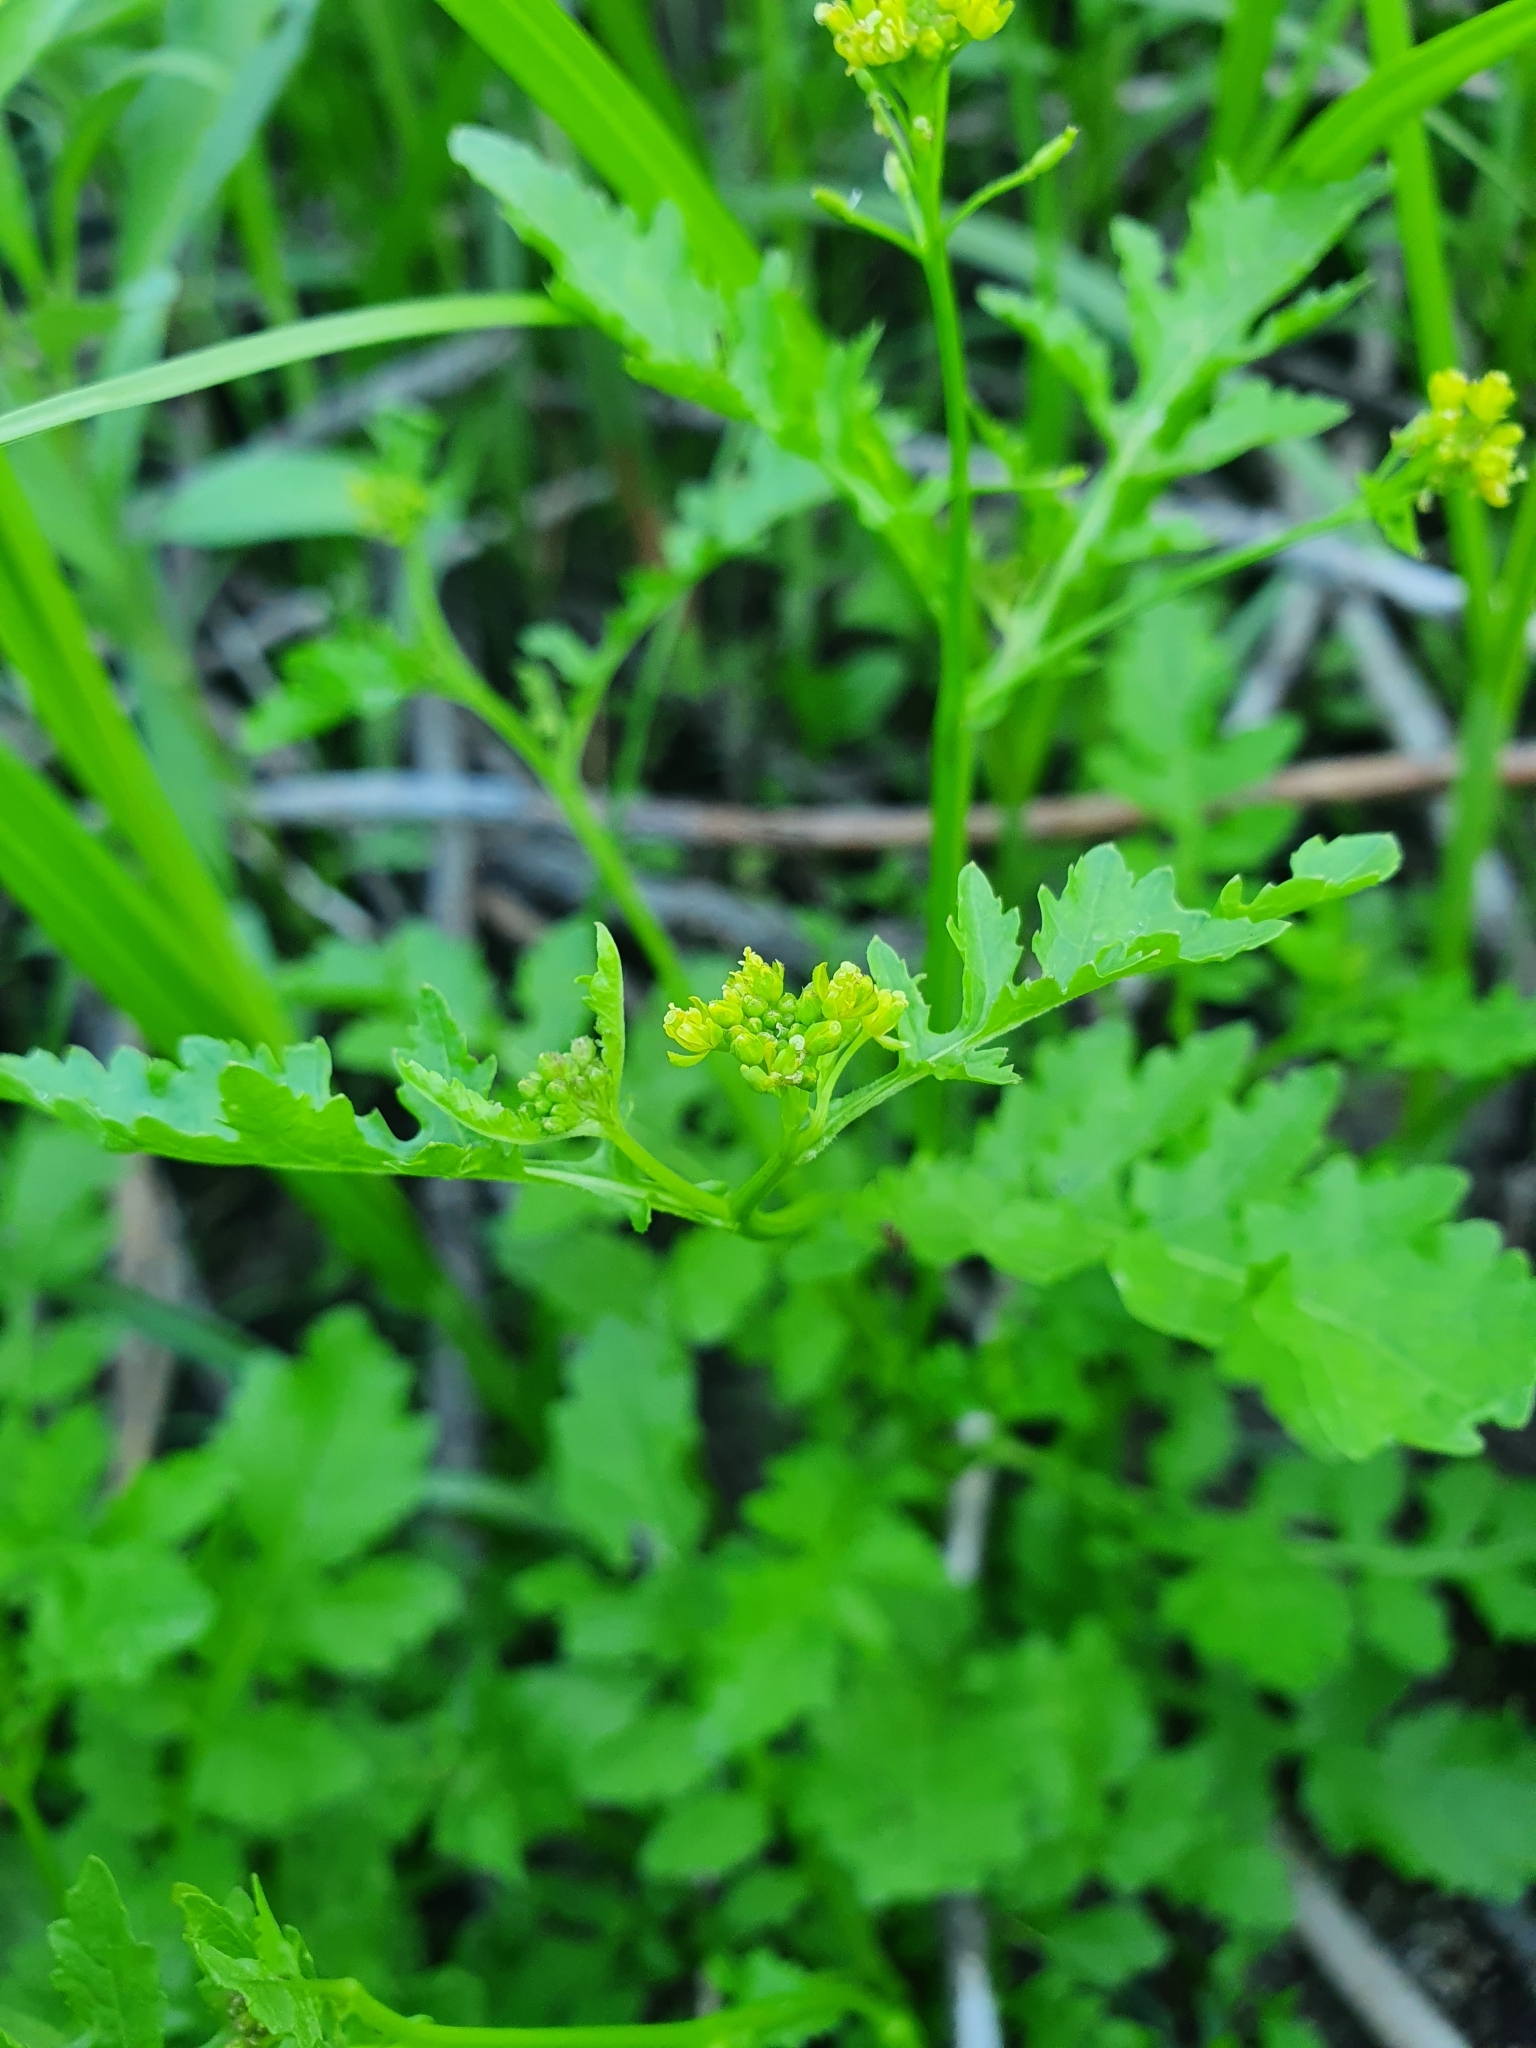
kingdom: Plantae
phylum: Tracheophyta
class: Magnoliopsida
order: Brassicales
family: Brassicaceae
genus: Rorippa
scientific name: Rorippa palustris
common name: Marsh yellow-cress
